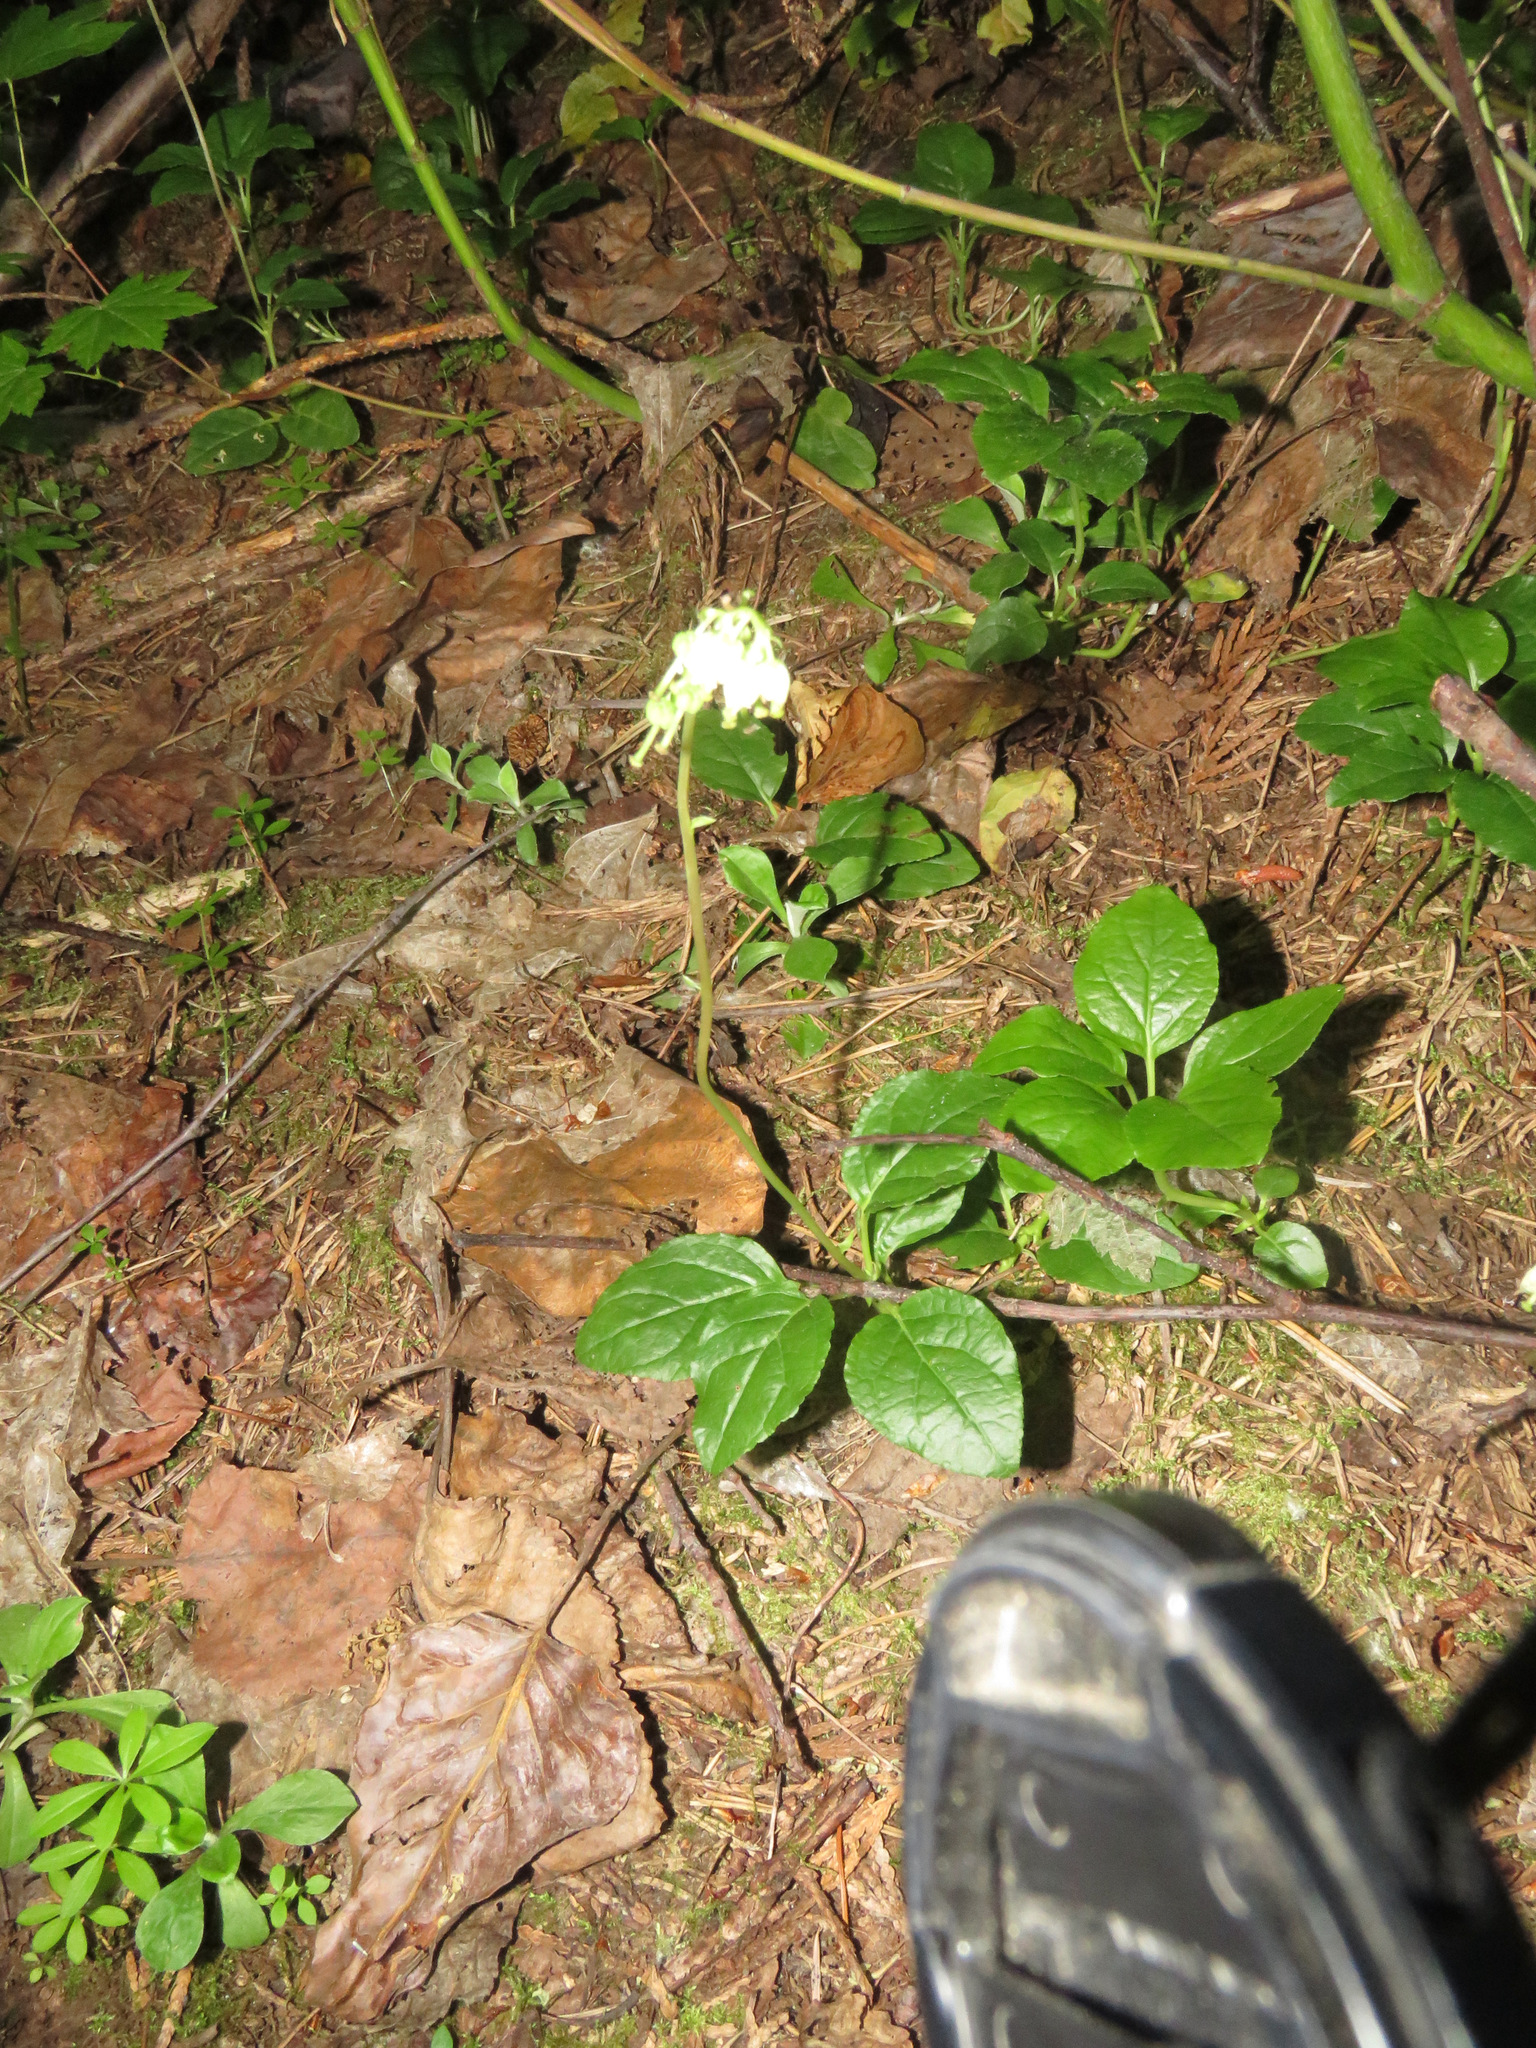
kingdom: Plantae
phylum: Tracheophyta
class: Magnoliopsida
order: Ericales
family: Ericaceae
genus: Orthilia
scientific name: Orthilia secunda
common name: One-sided orthilia
